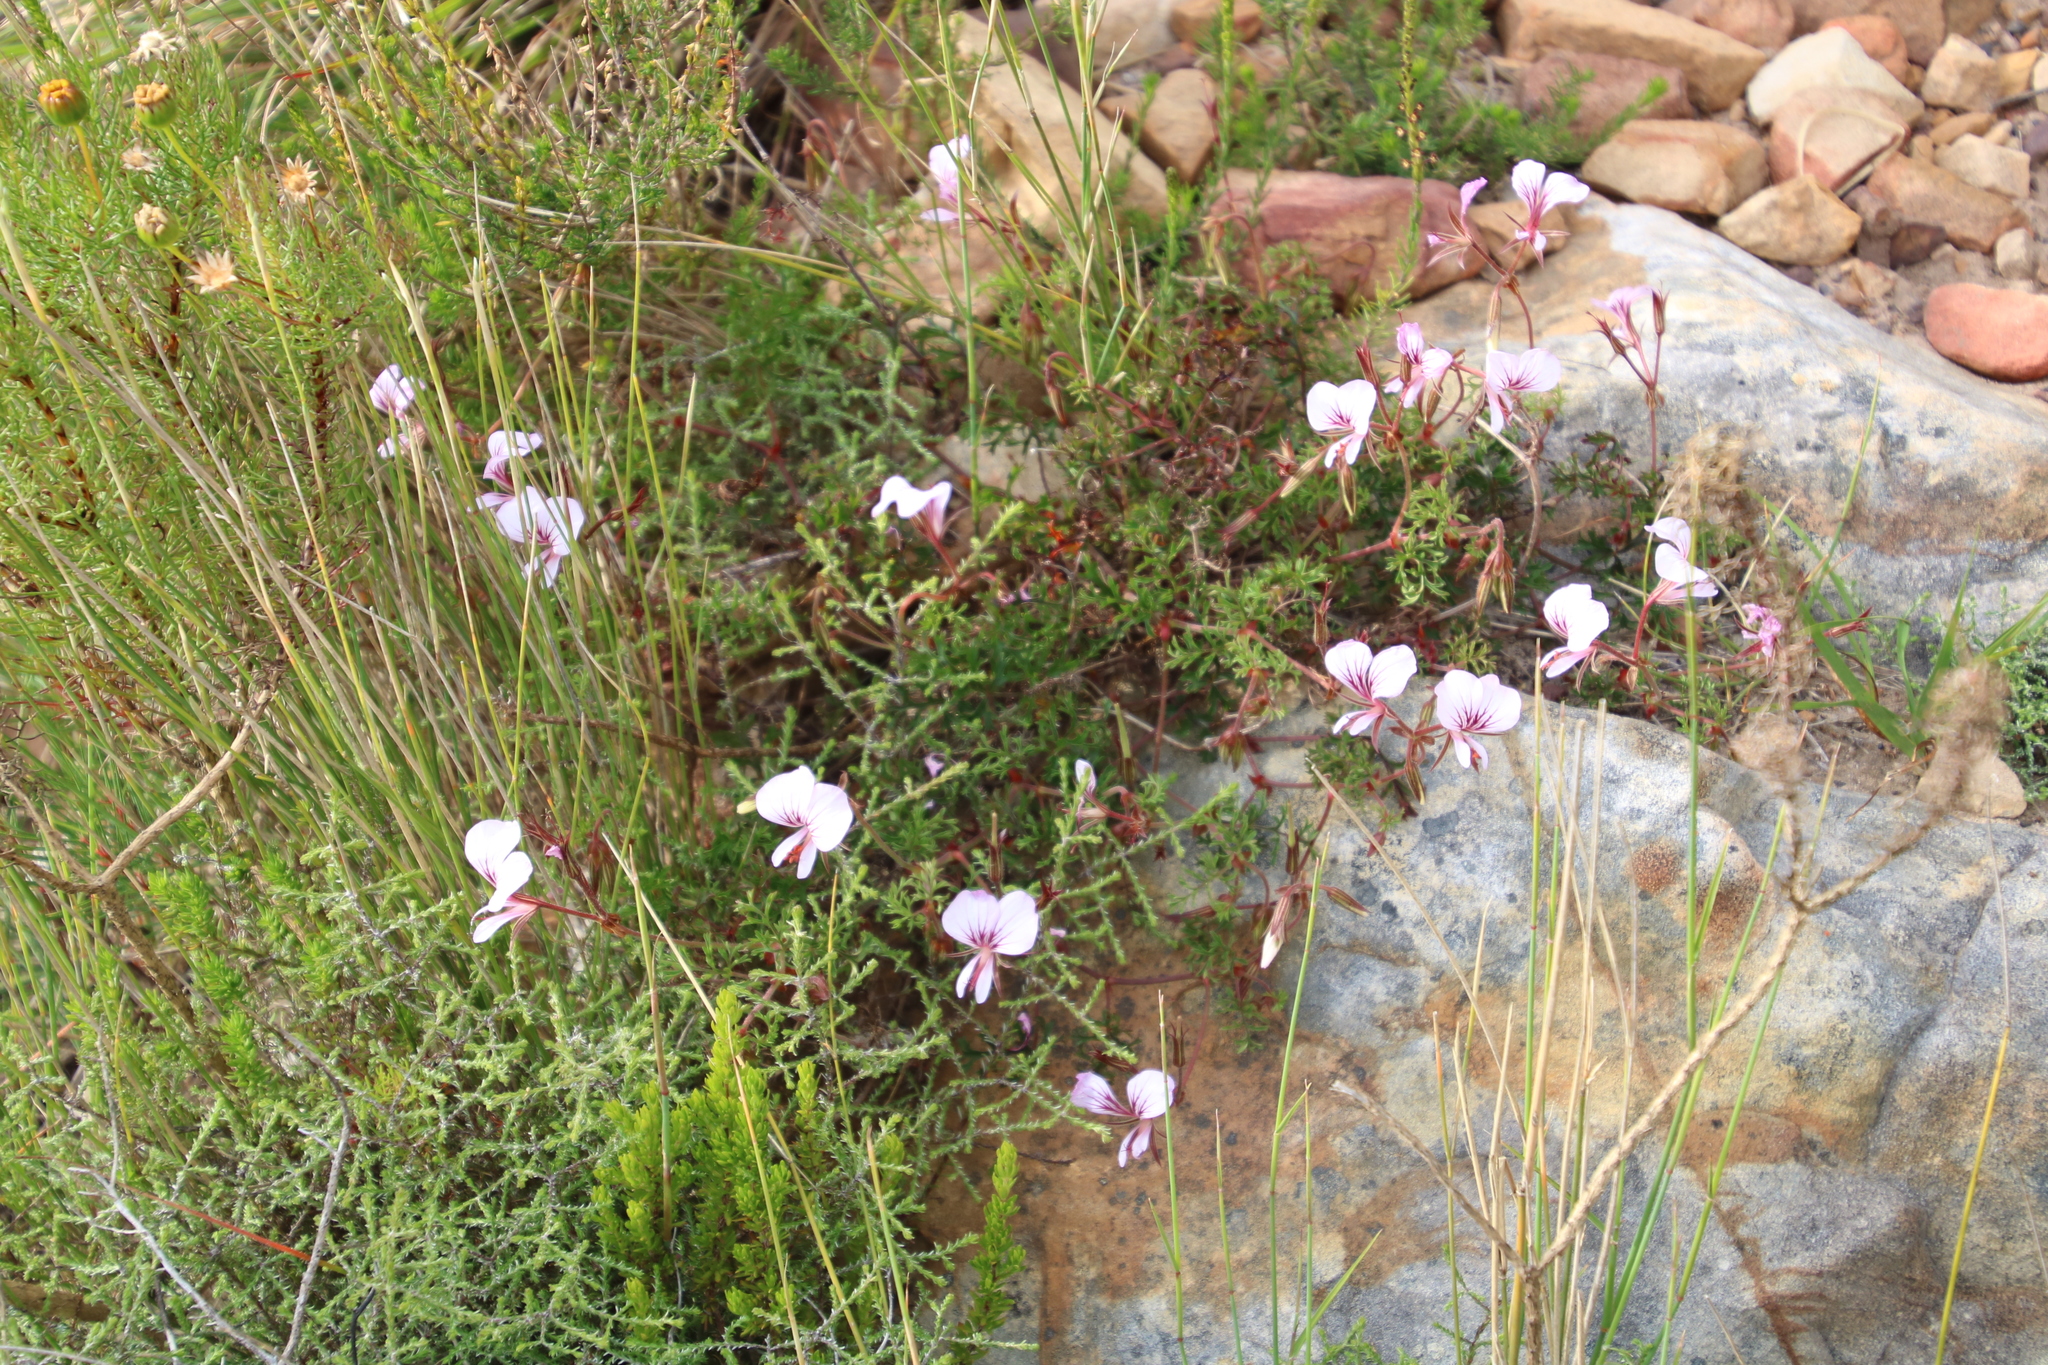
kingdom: Plantae
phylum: Tracheophyta
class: Magnoliopsida
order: Geraniales
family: Geraniaceae
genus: Pelargonium
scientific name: Pelargonium myrrhifolium
